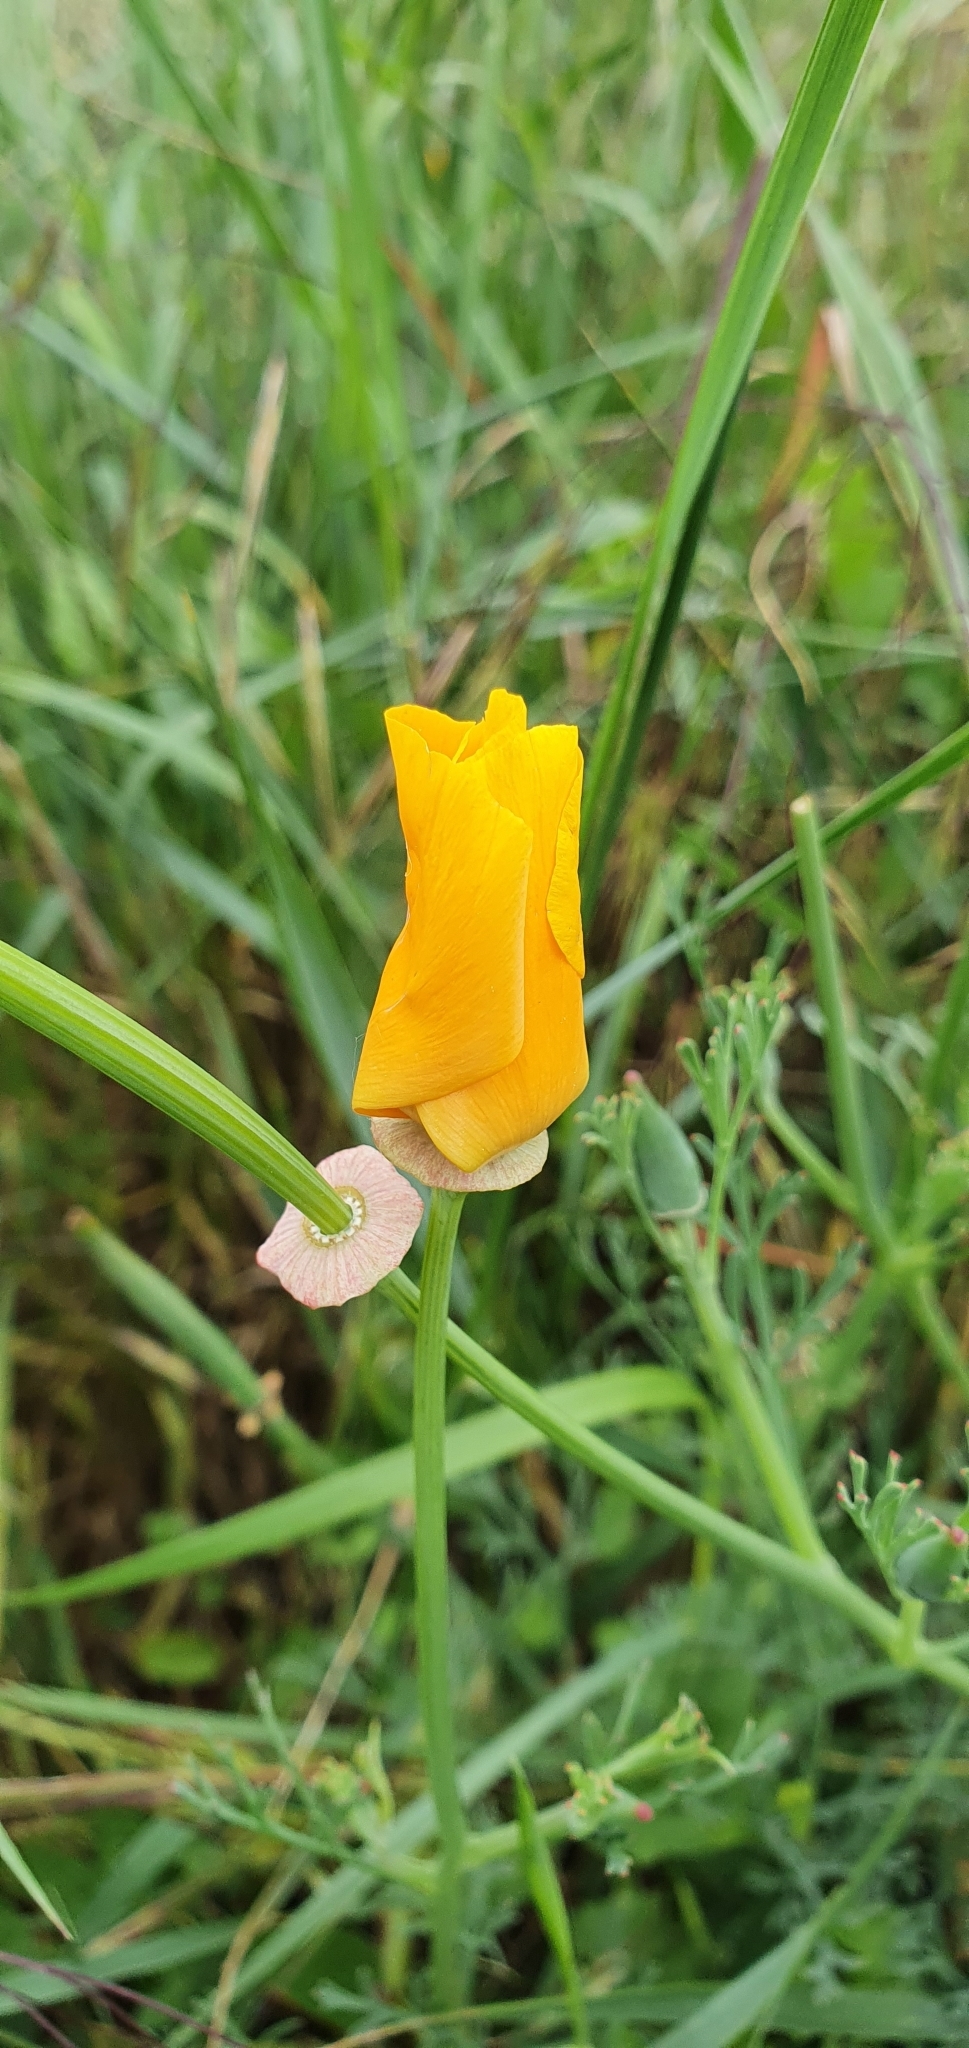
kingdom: Plantae
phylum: Tracheophyta
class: Magnoliopsida
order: Ranunculales
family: Papaveraceae
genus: Eschscholzia
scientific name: Eschscholzia californica
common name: California poppy
